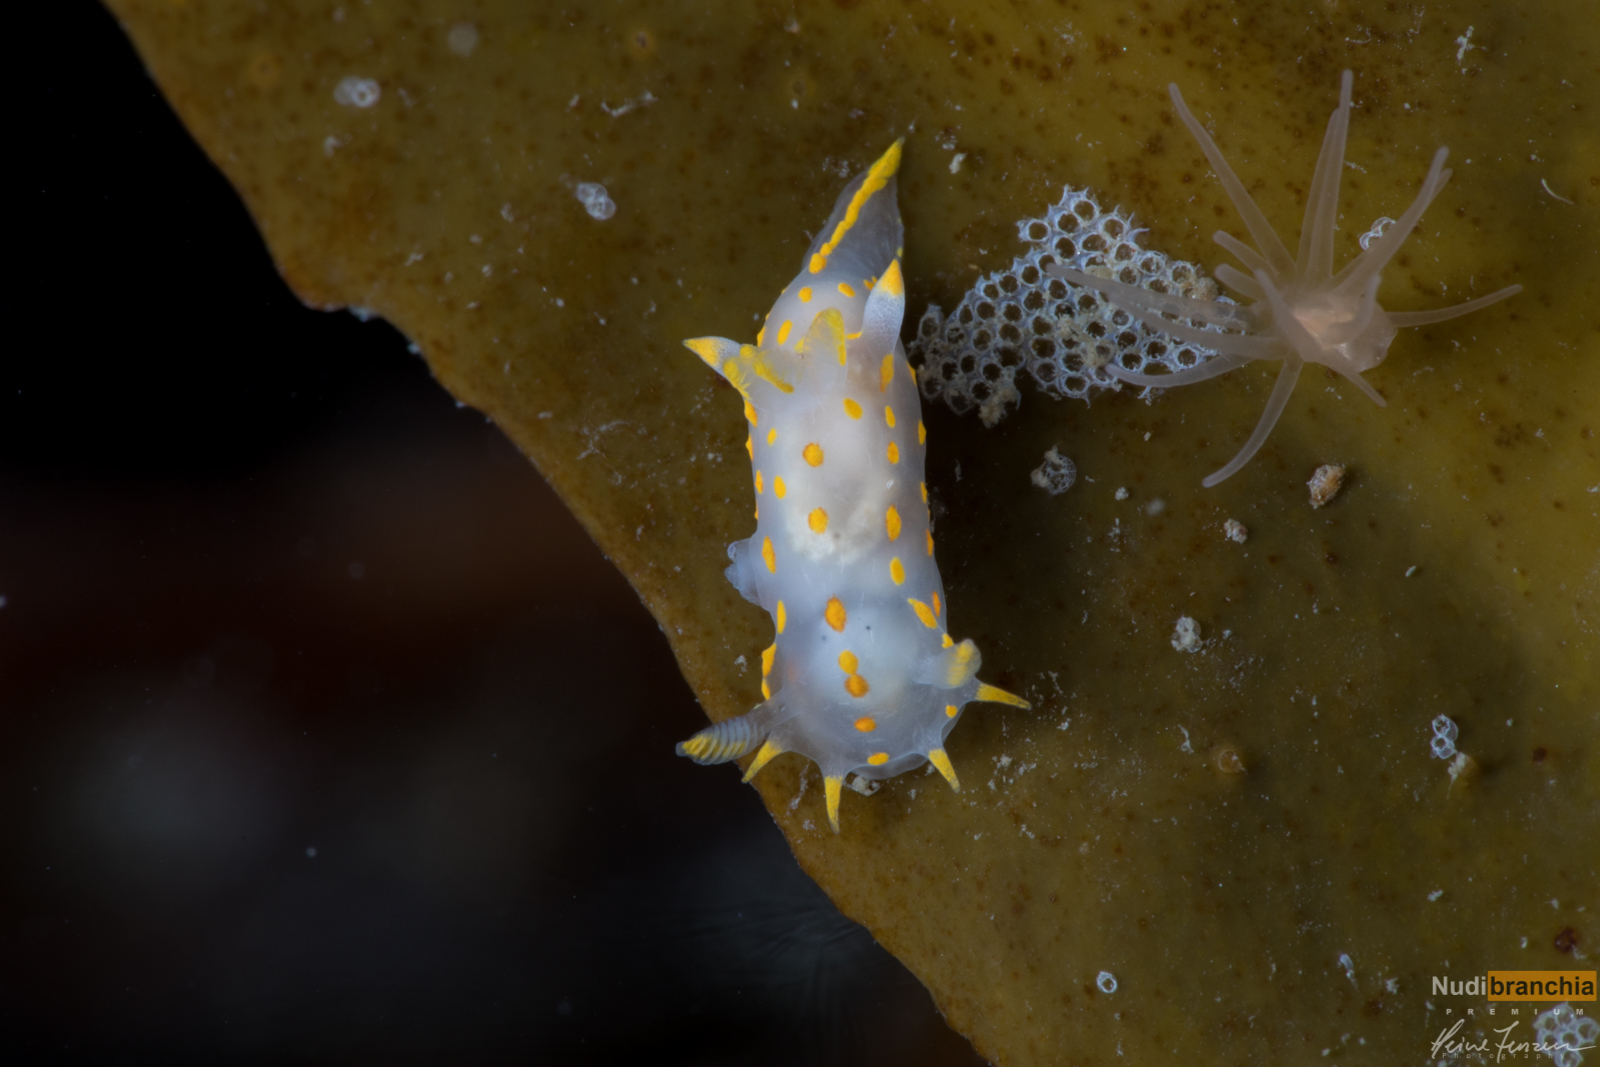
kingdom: Animalia
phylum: Mollusca
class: Gastropoda
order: Nudibranchia
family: Polyceridae
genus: Polycera
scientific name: Polycera quadrilineata
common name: Four-striped polycera
